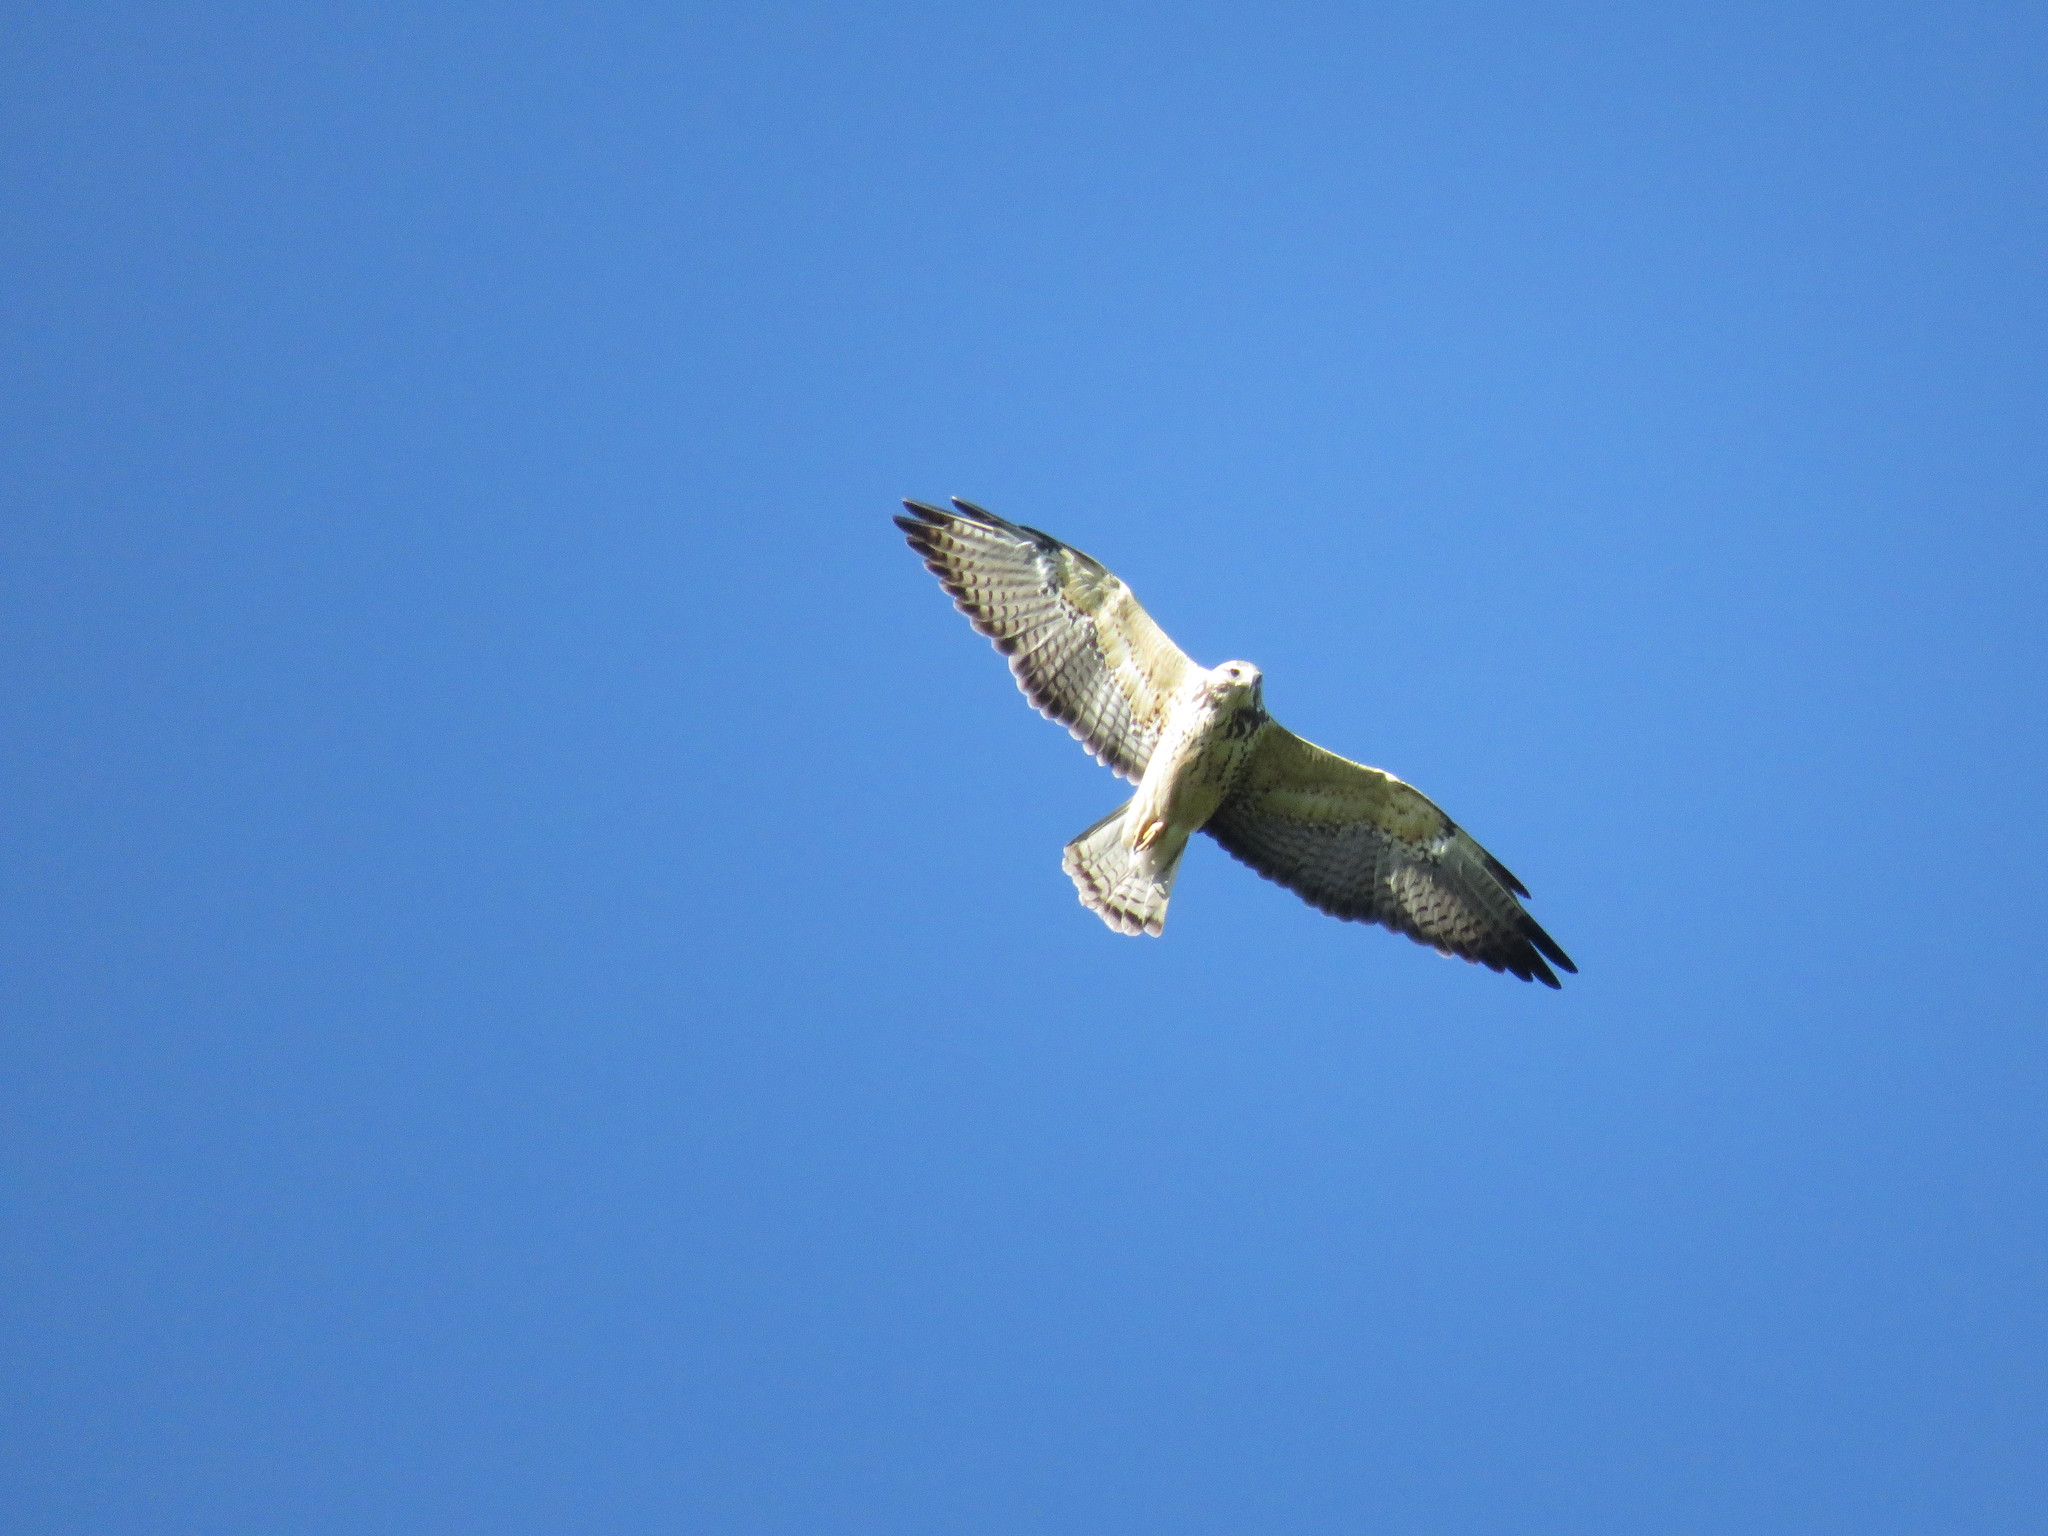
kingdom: Animalia
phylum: Chordata
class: Aves
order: Accipitriformes
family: Accipitridae
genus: Buteo
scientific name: Buteo swainsoni
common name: Swainson's hawk
